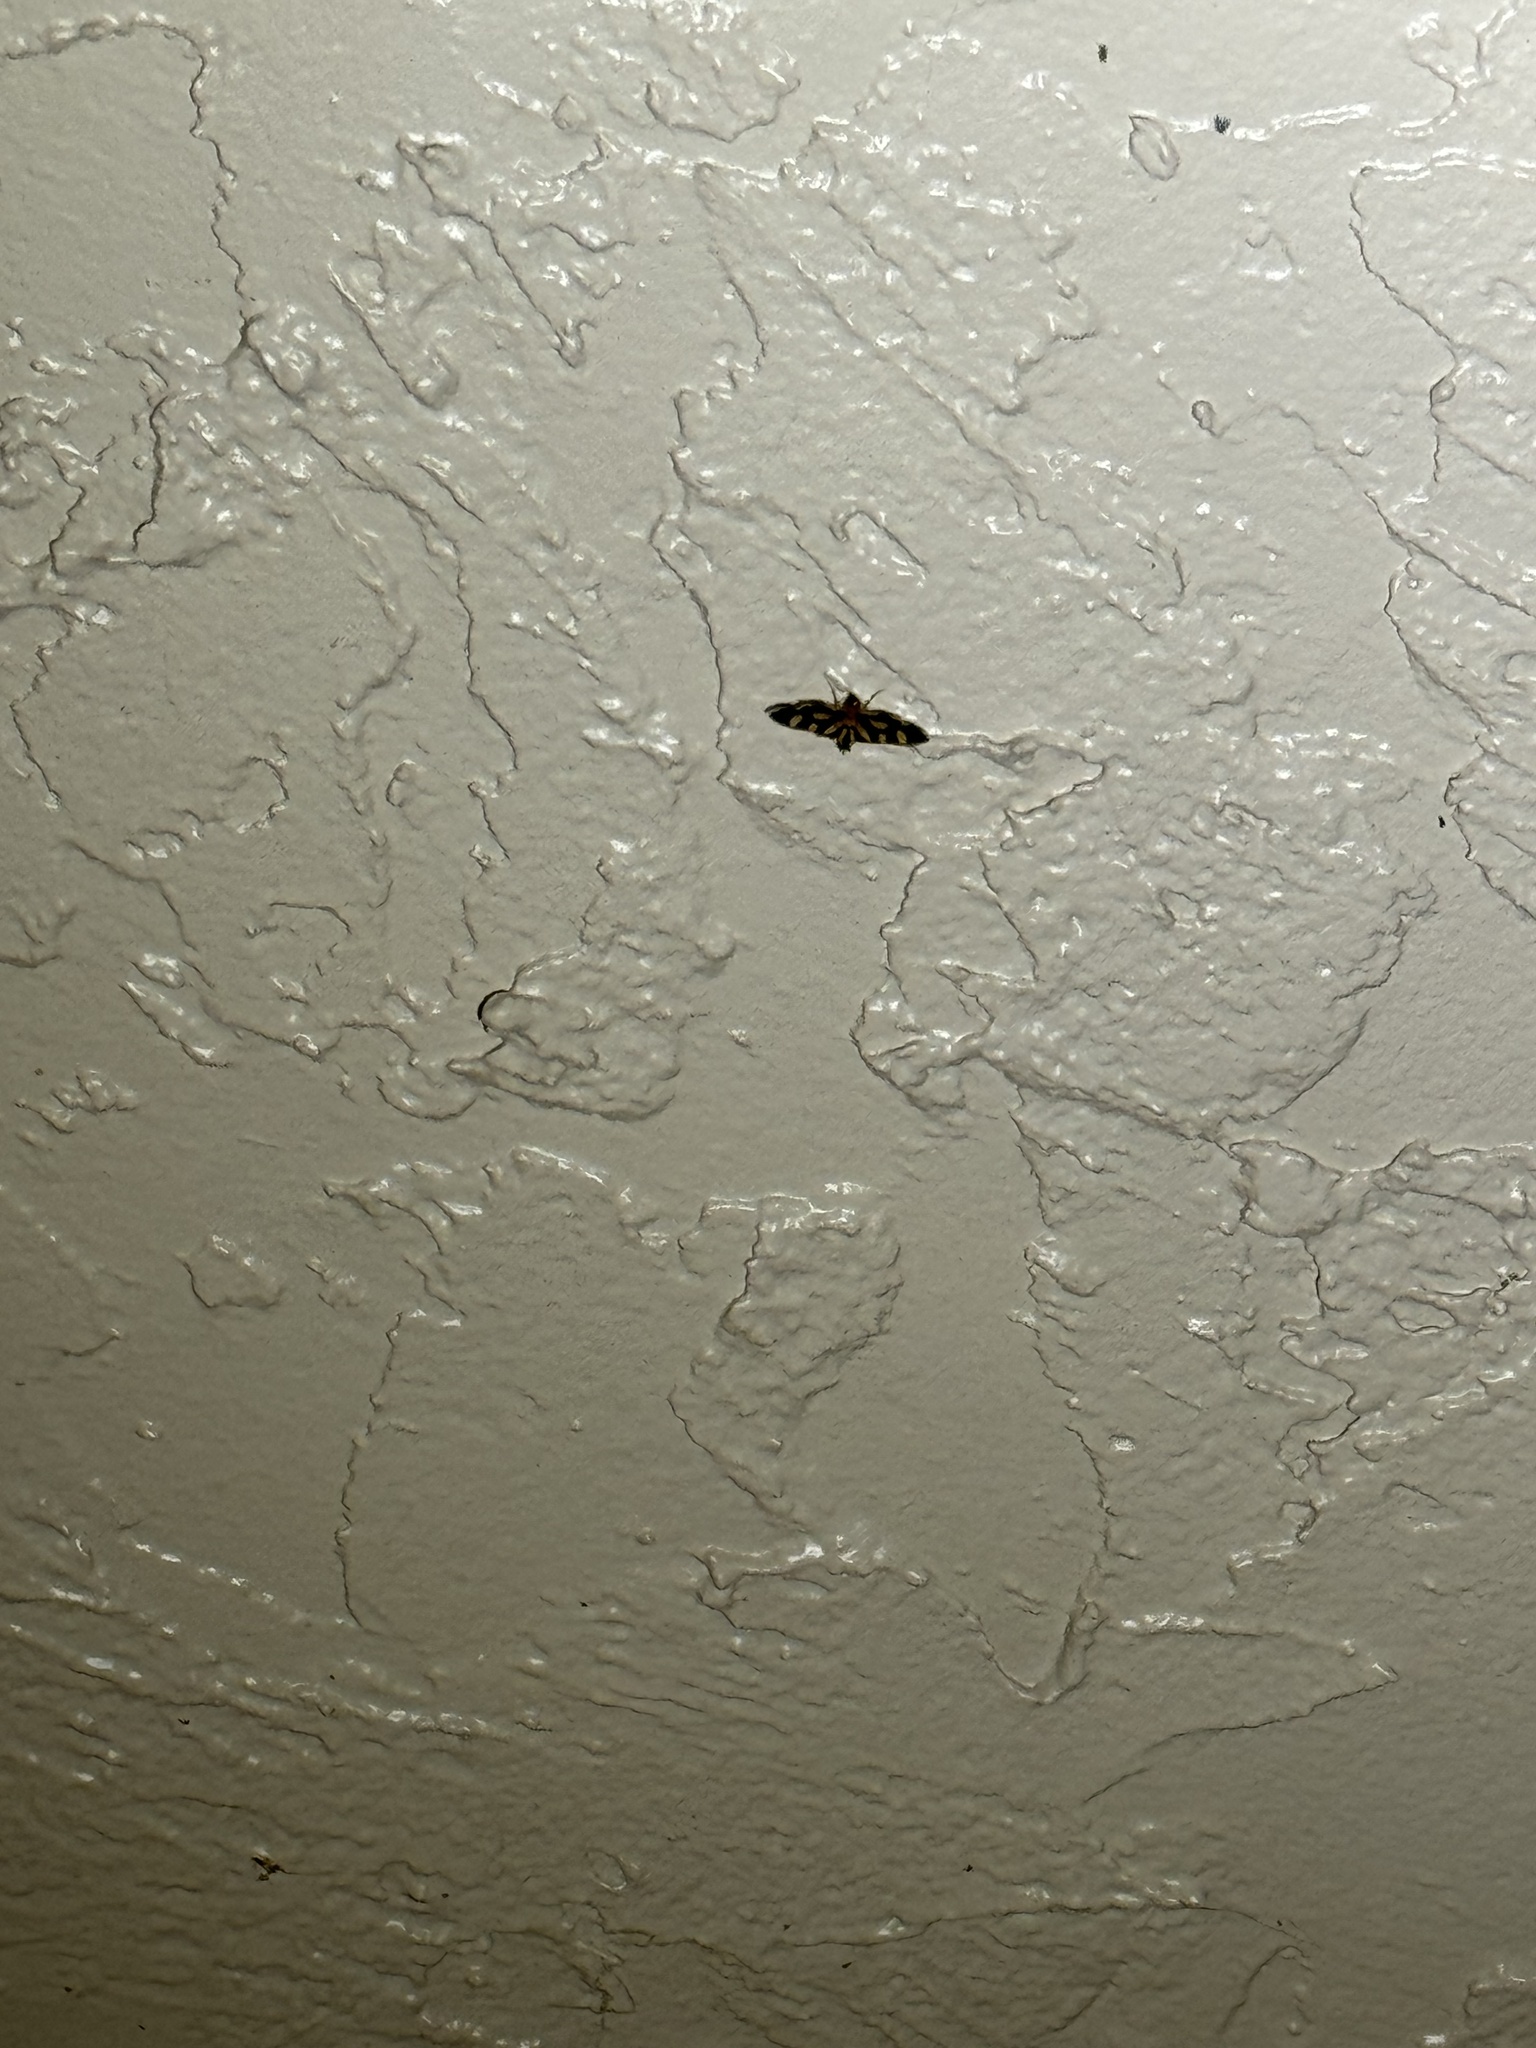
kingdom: Animalia
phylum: Arthropoda
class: Insecta
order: Lepidoptera
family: Crambidae
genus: Syngamia
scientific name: Syngamia florella
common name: Orange-spotted flower moth
